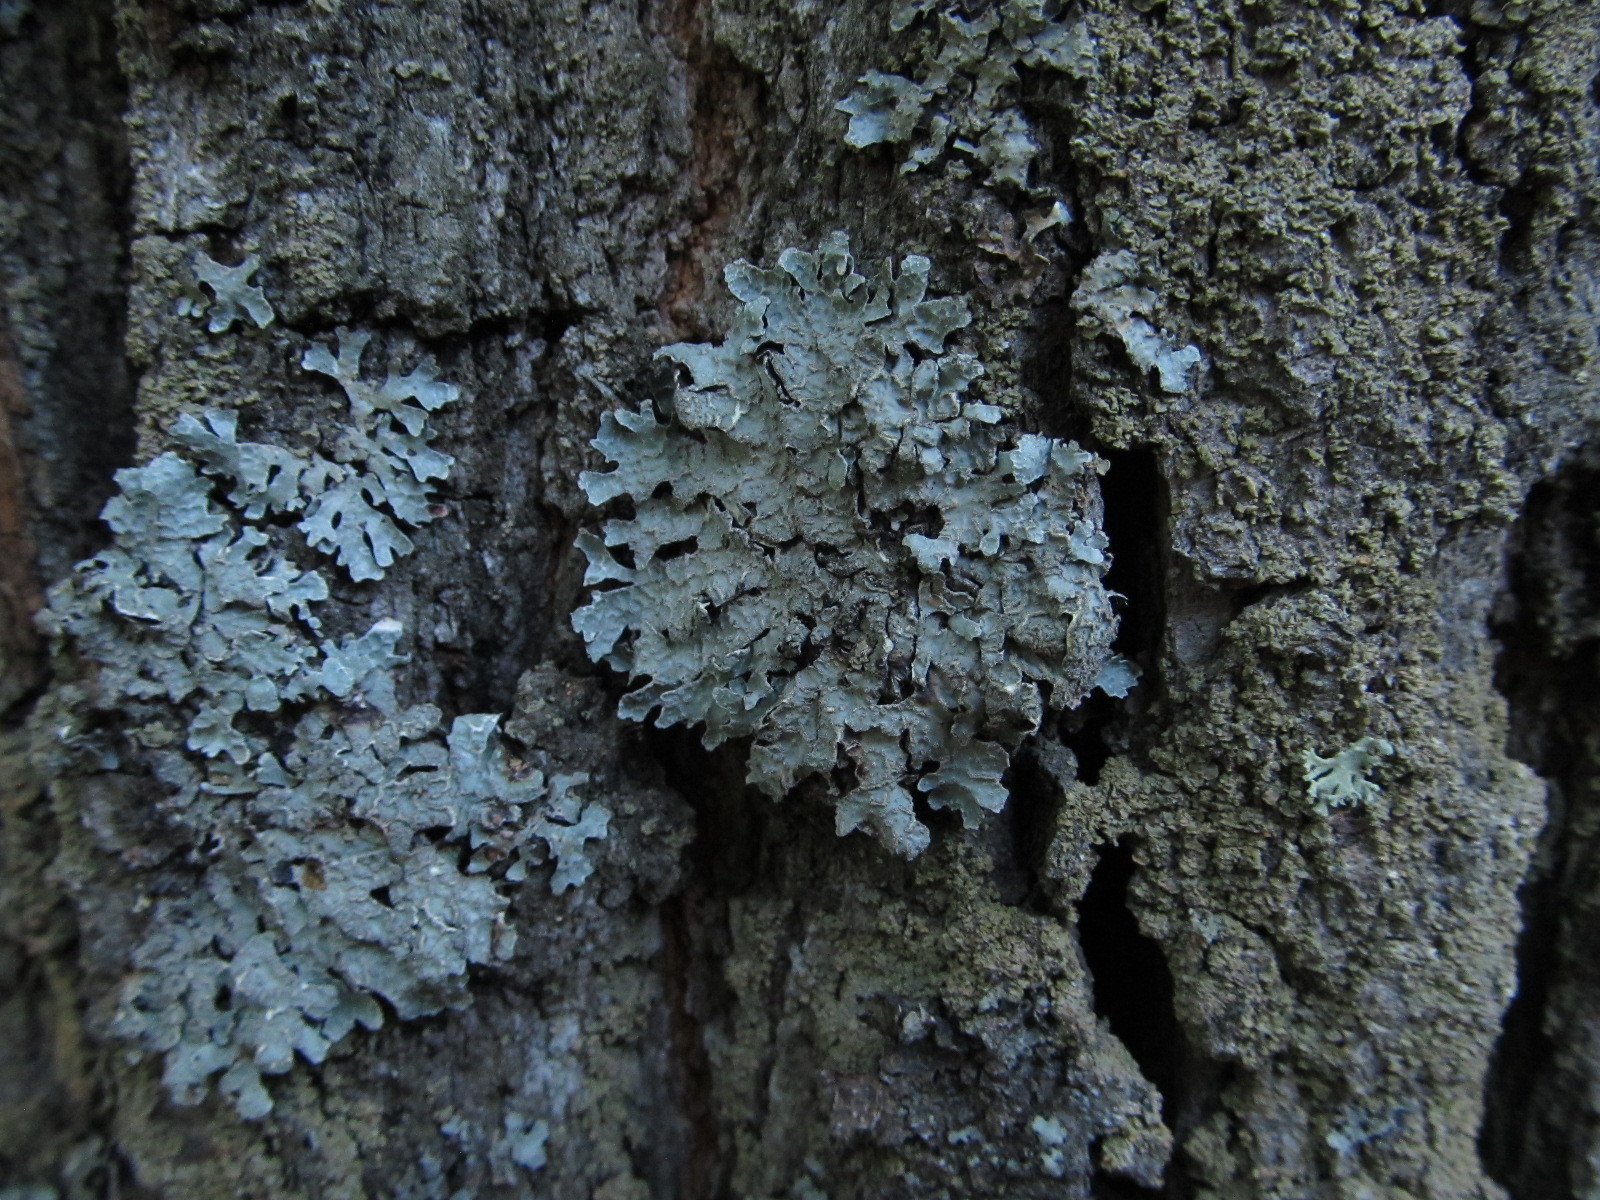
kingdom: Fungi
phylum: Ascomycota
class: Lecanoromycetes
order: Lecanorales
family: Parmeliaceae
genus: Parmelia
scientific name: Parmelia sulcata
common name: Netted shield lichen
